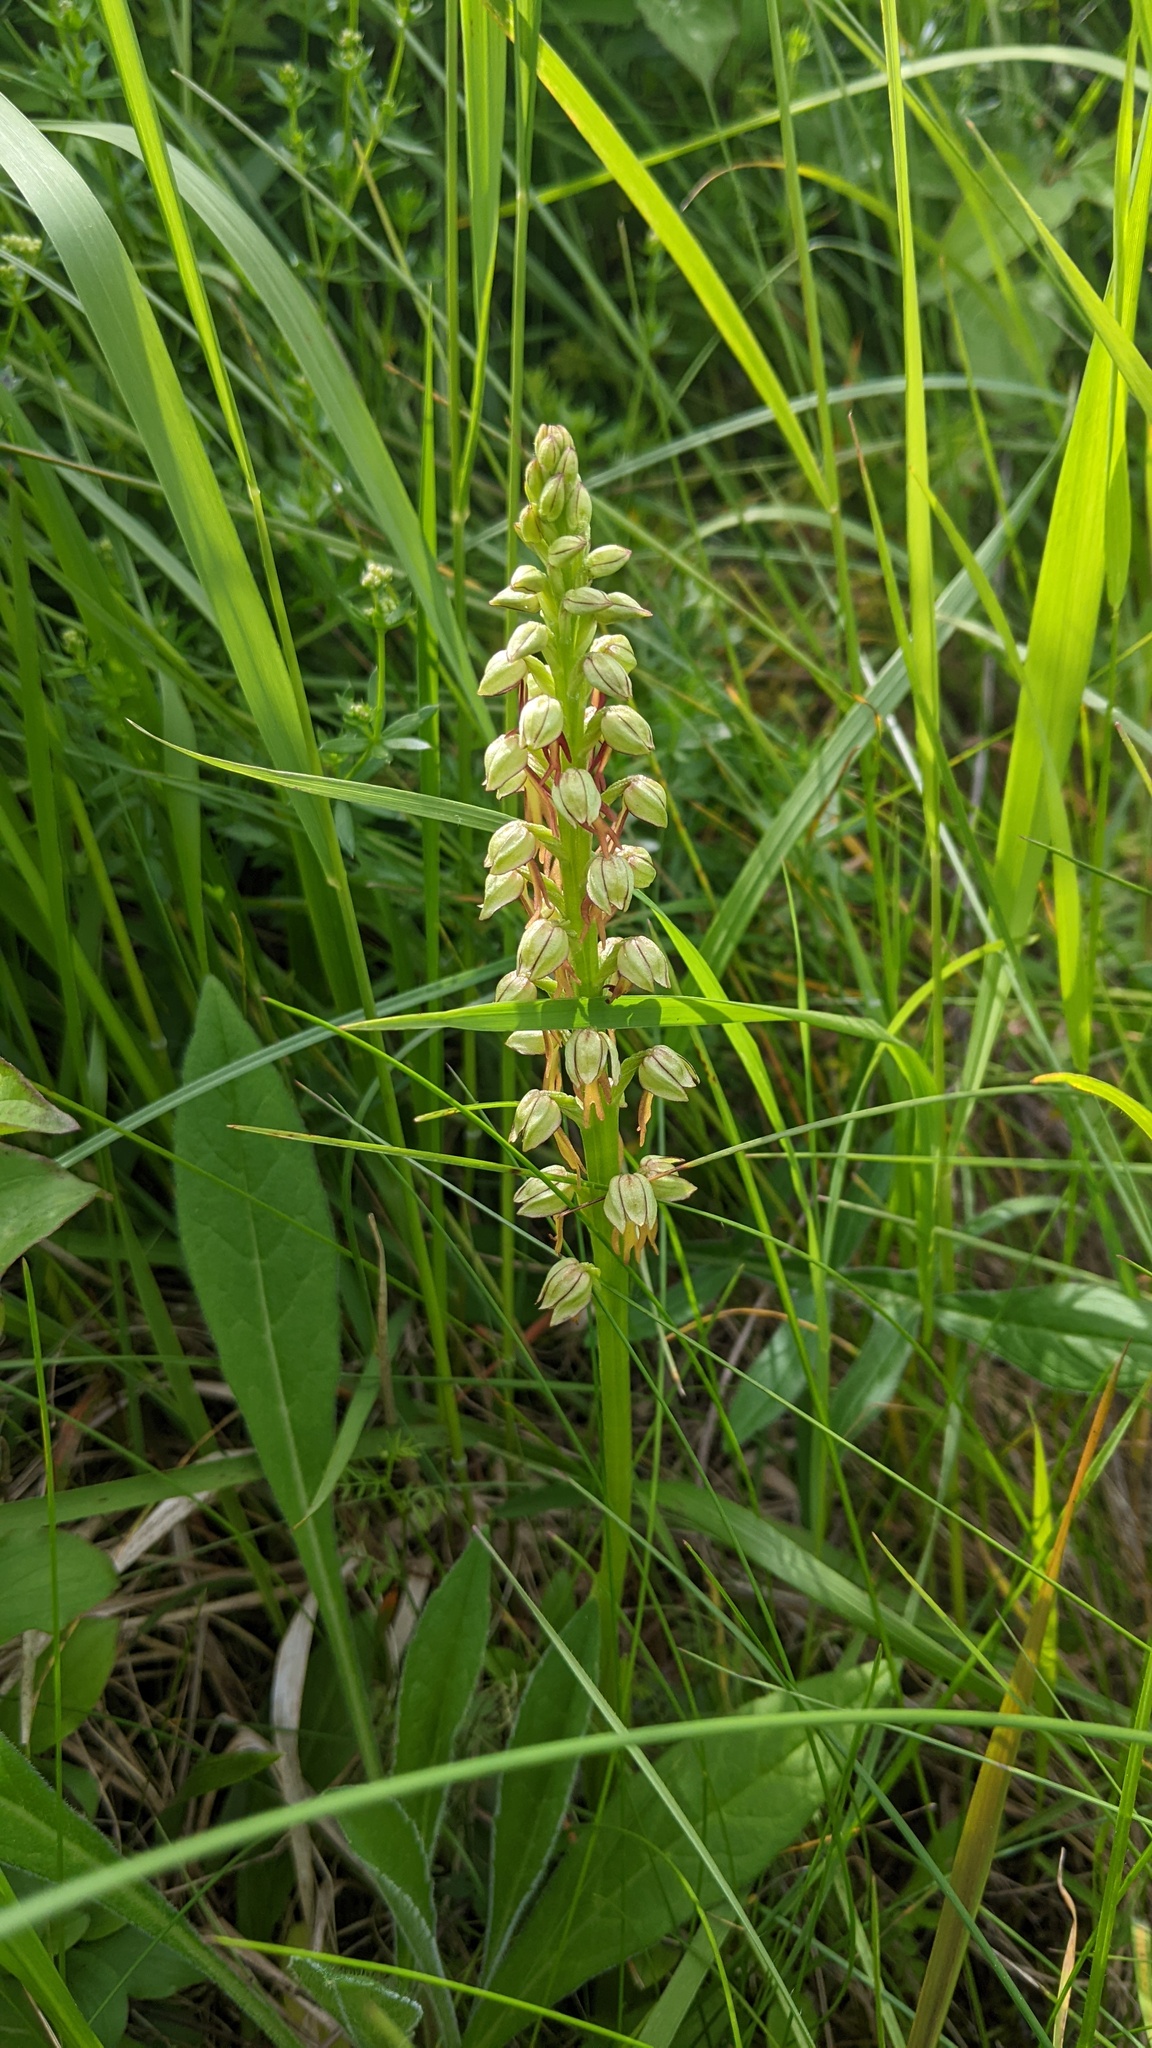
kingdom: Plantae
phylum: Tracheophyta
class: Liliopsida
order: Asparagales
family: Orchidaceae
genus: Orchis
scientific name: Orchis anthropophora
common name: Man orchid
